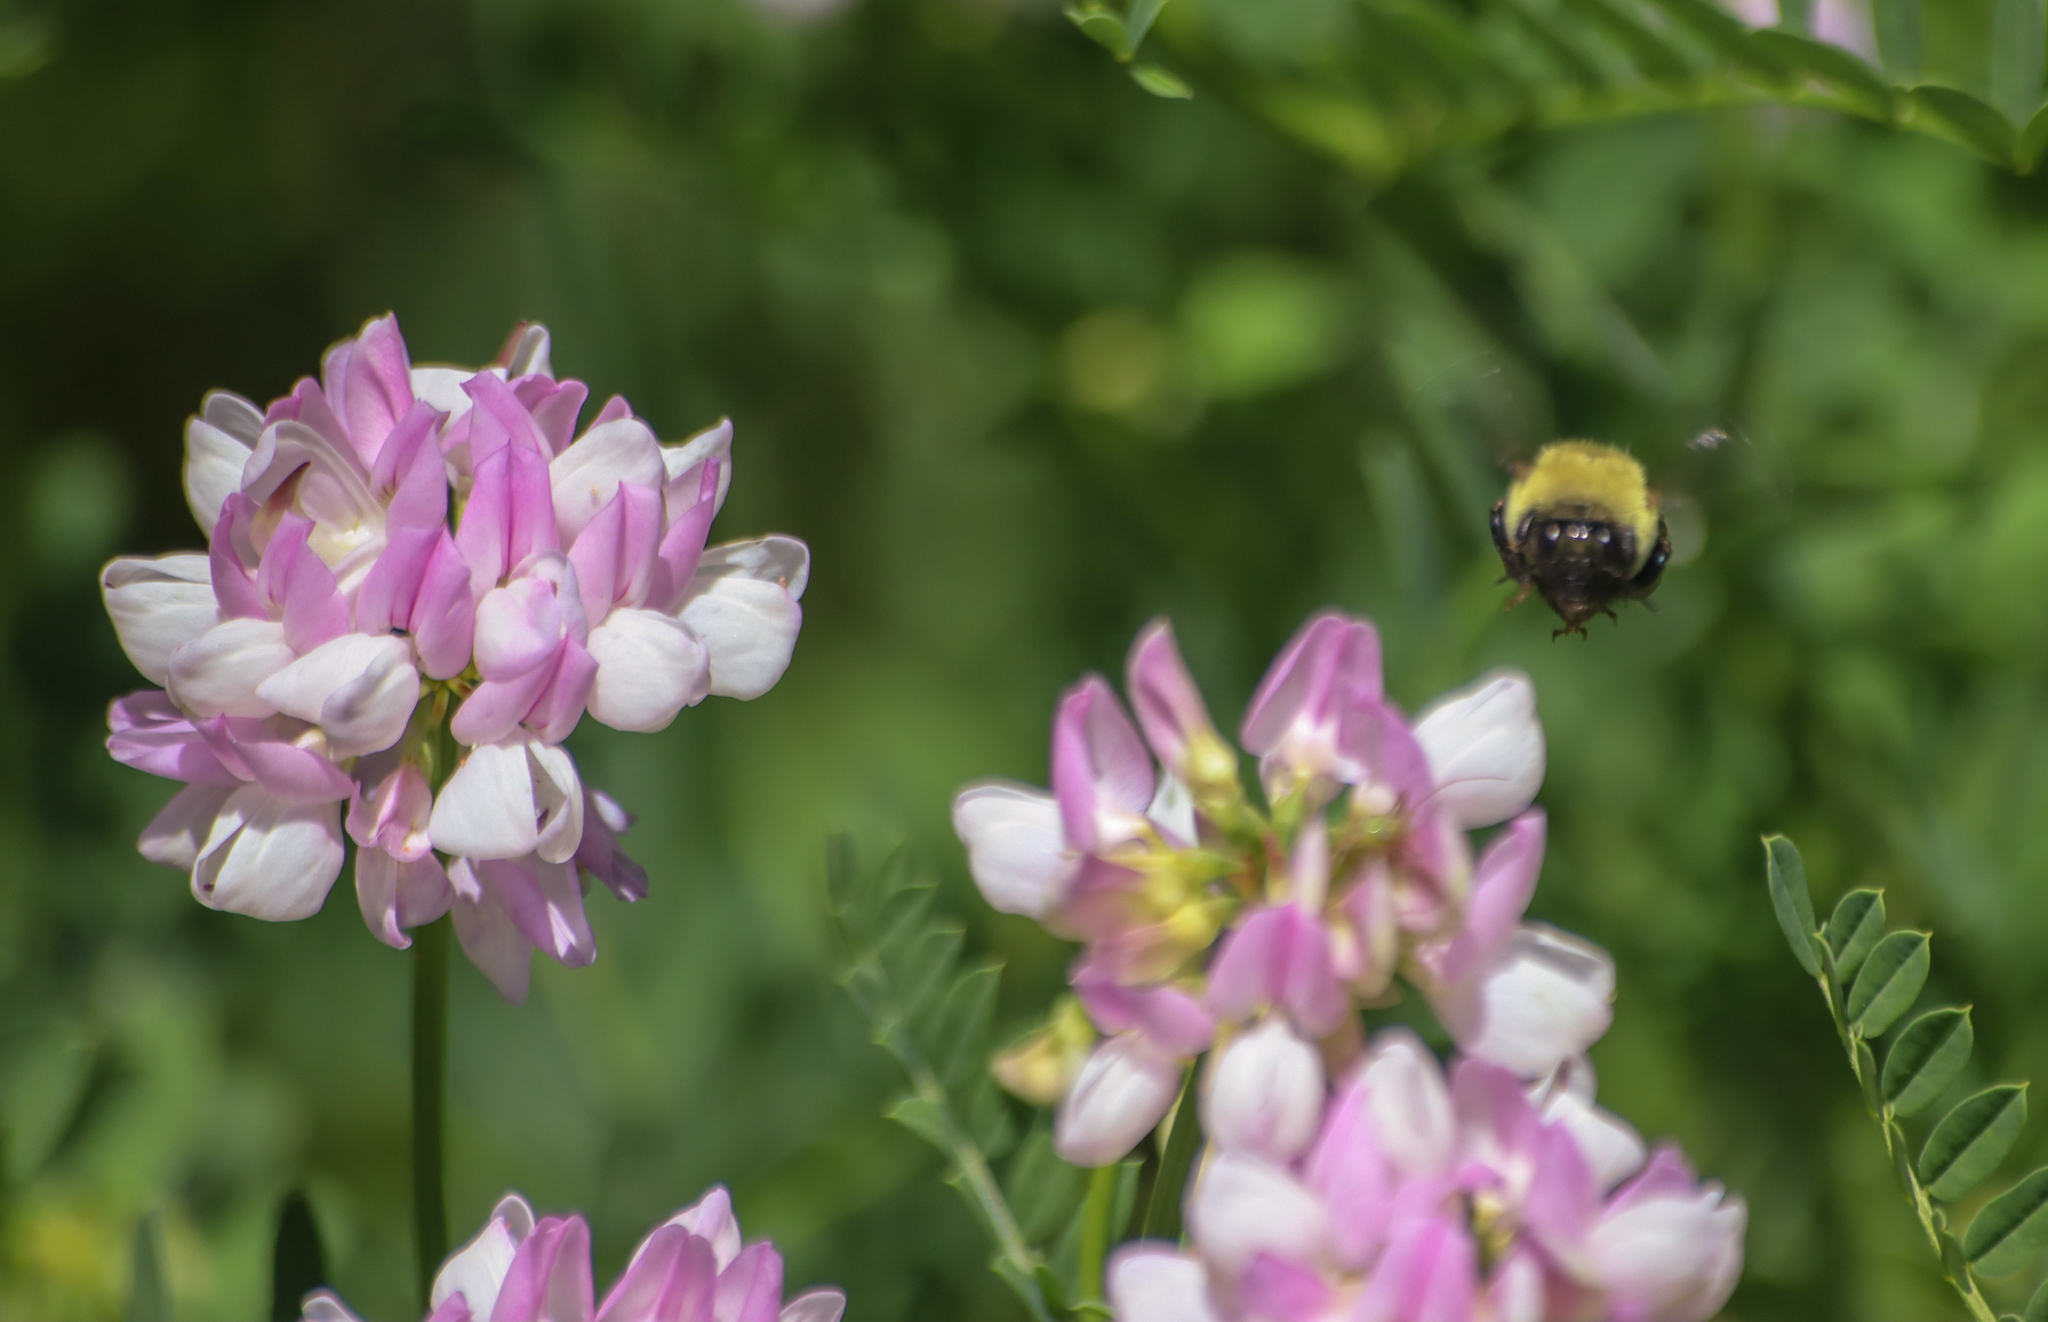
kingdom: Animalia
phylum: Arthropoda
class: Insecta
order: Hymenoptera
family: Apidae
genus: Bombus
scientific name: Bombus impatiens
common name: Common eastern bumble bee
